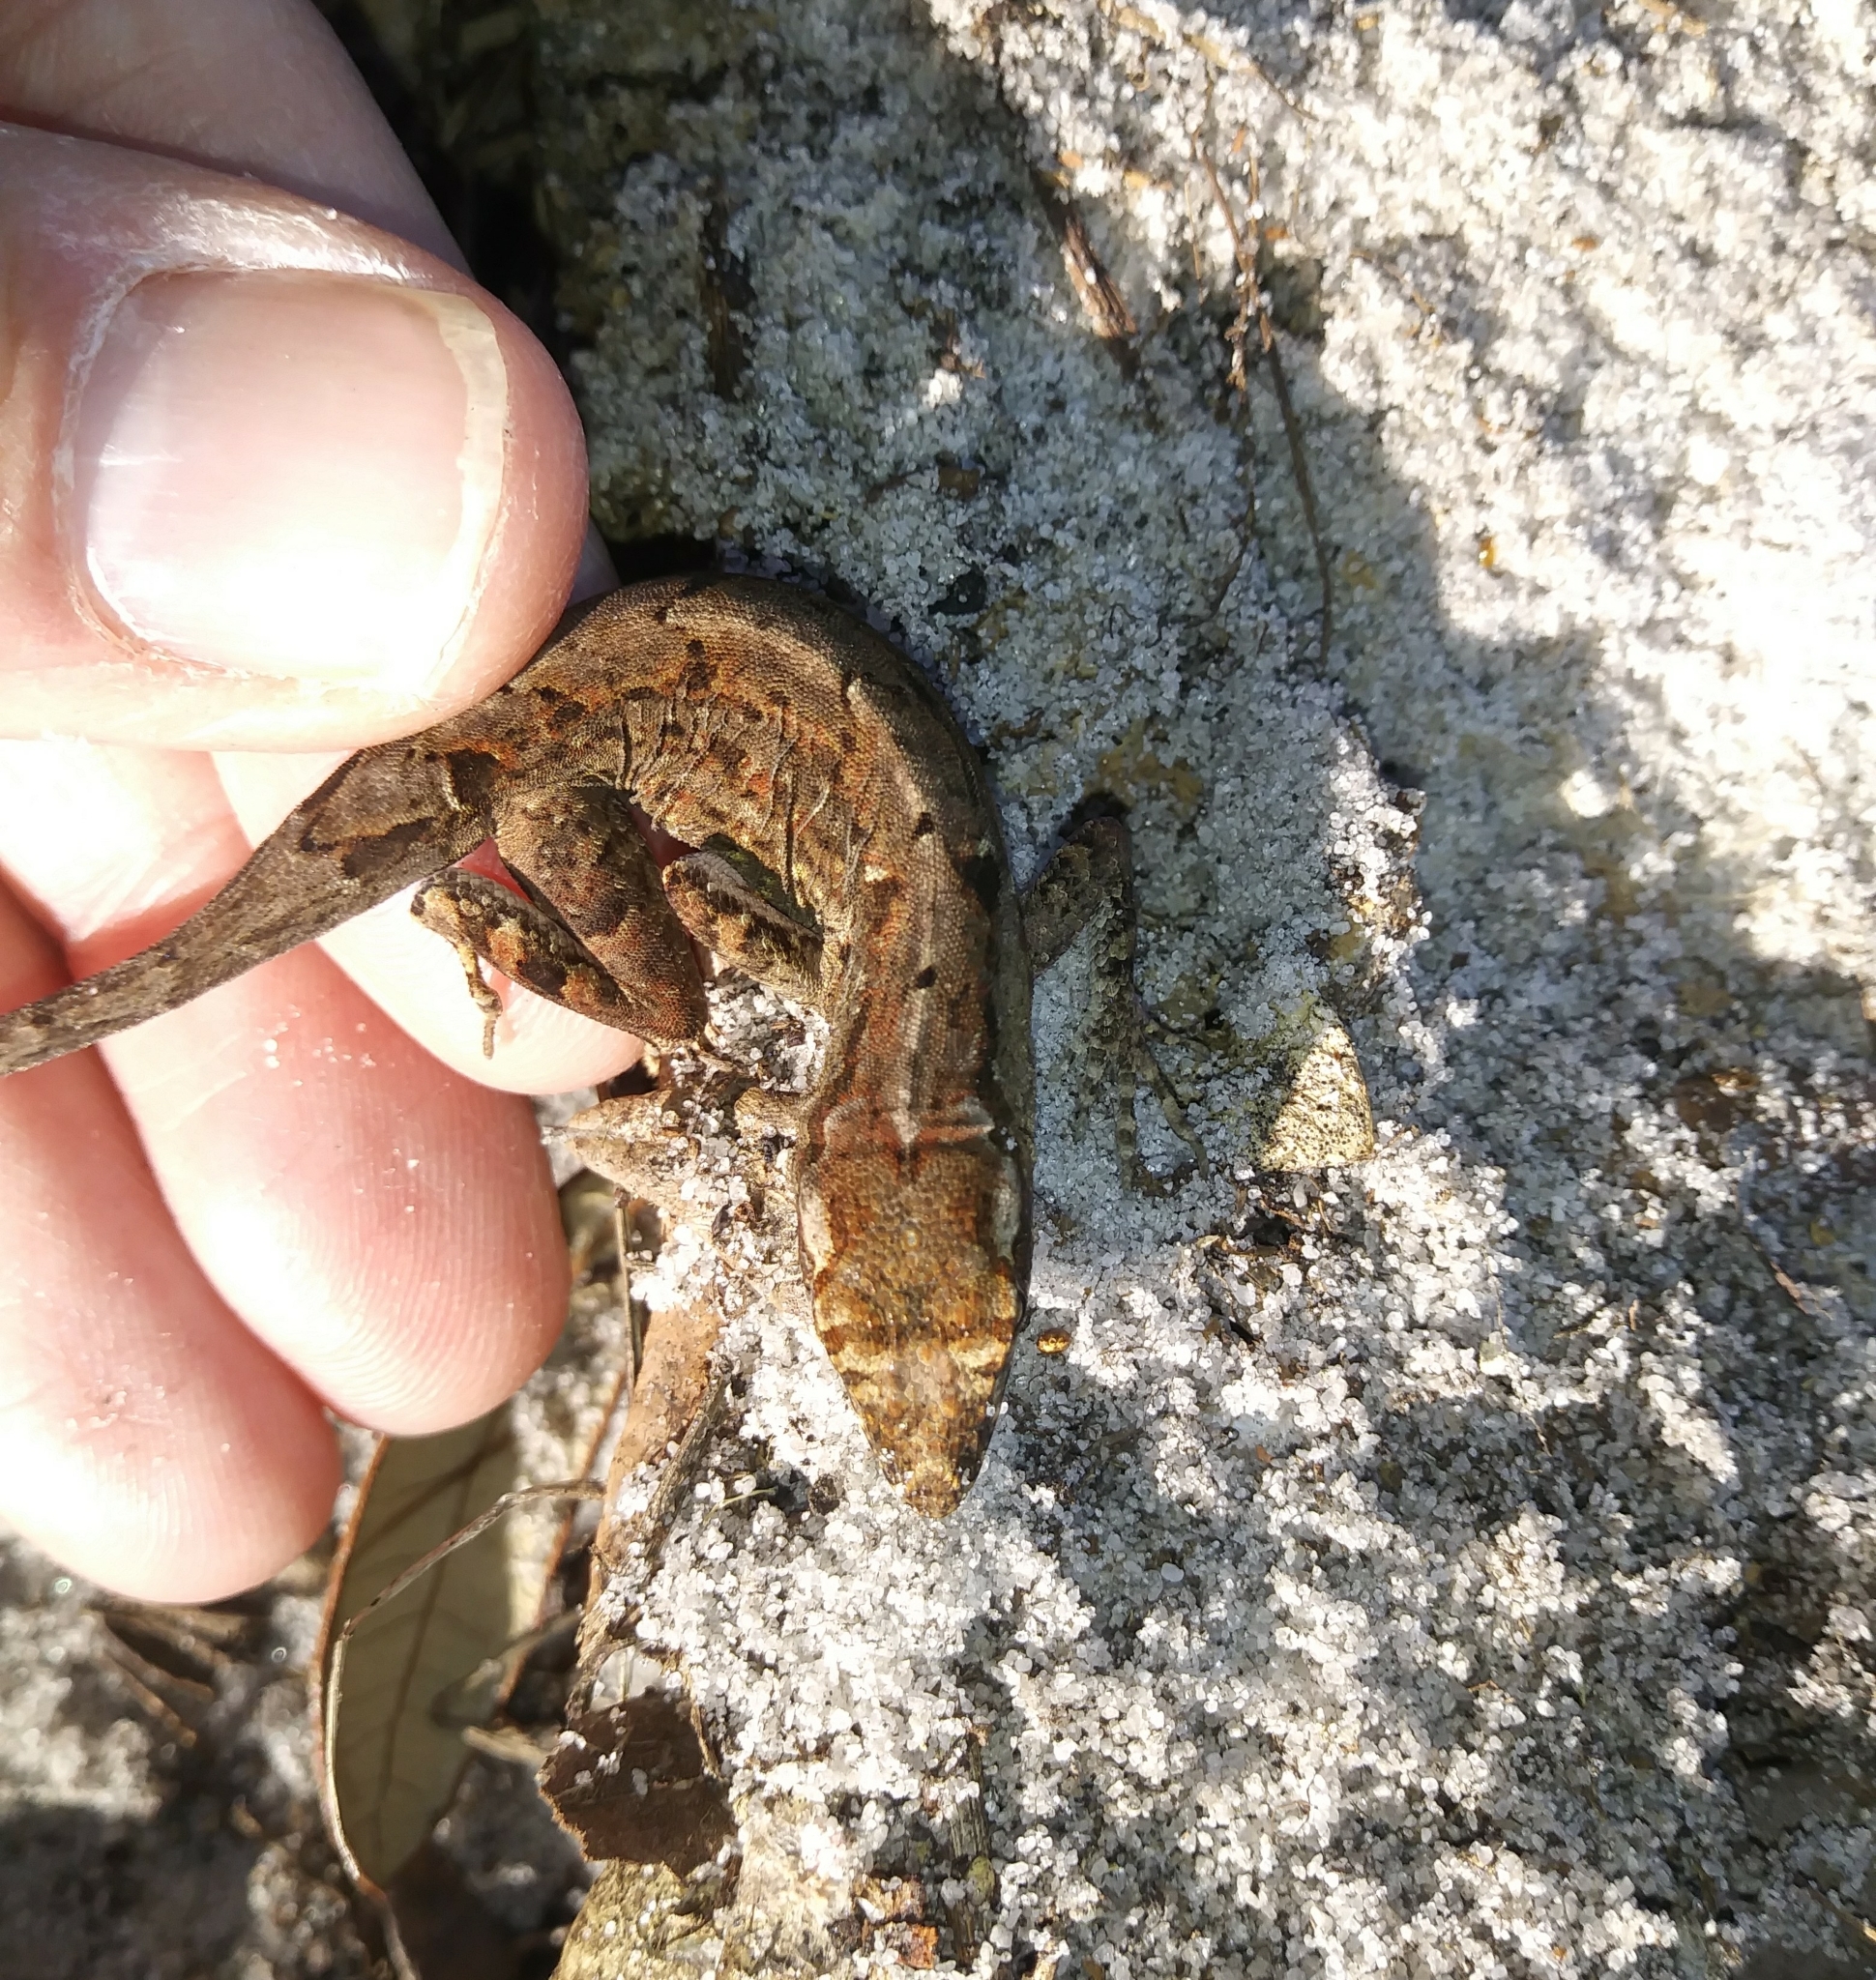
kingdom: Animalia
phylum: Chordata
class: Squamata
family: Dactyloidae
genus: Anolis
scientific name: Anolis sagrei
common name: Brown anole
